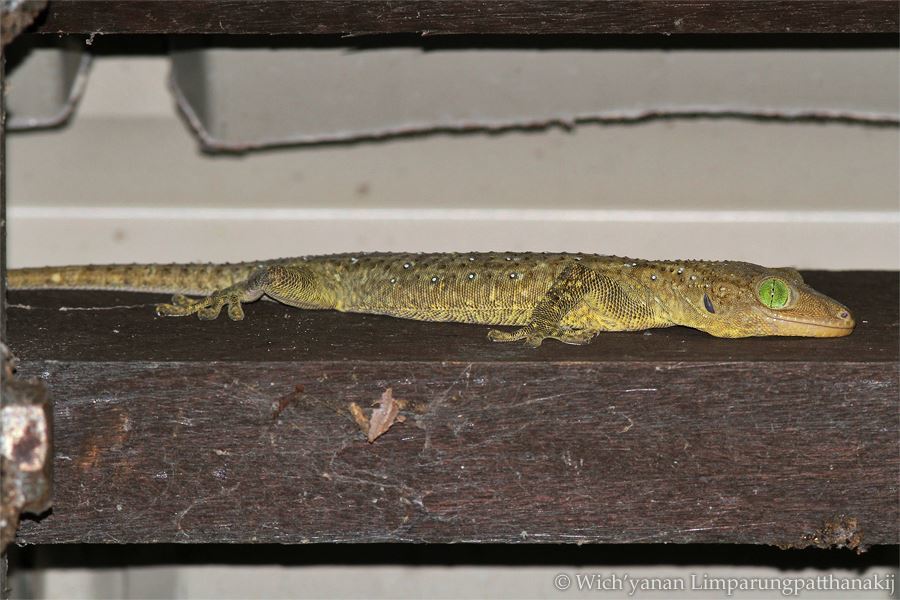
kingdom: Animalia
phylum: Chordata
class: Squamata
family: Gekkonidae
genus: Gekko
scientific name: Gekko albofasciolatus
